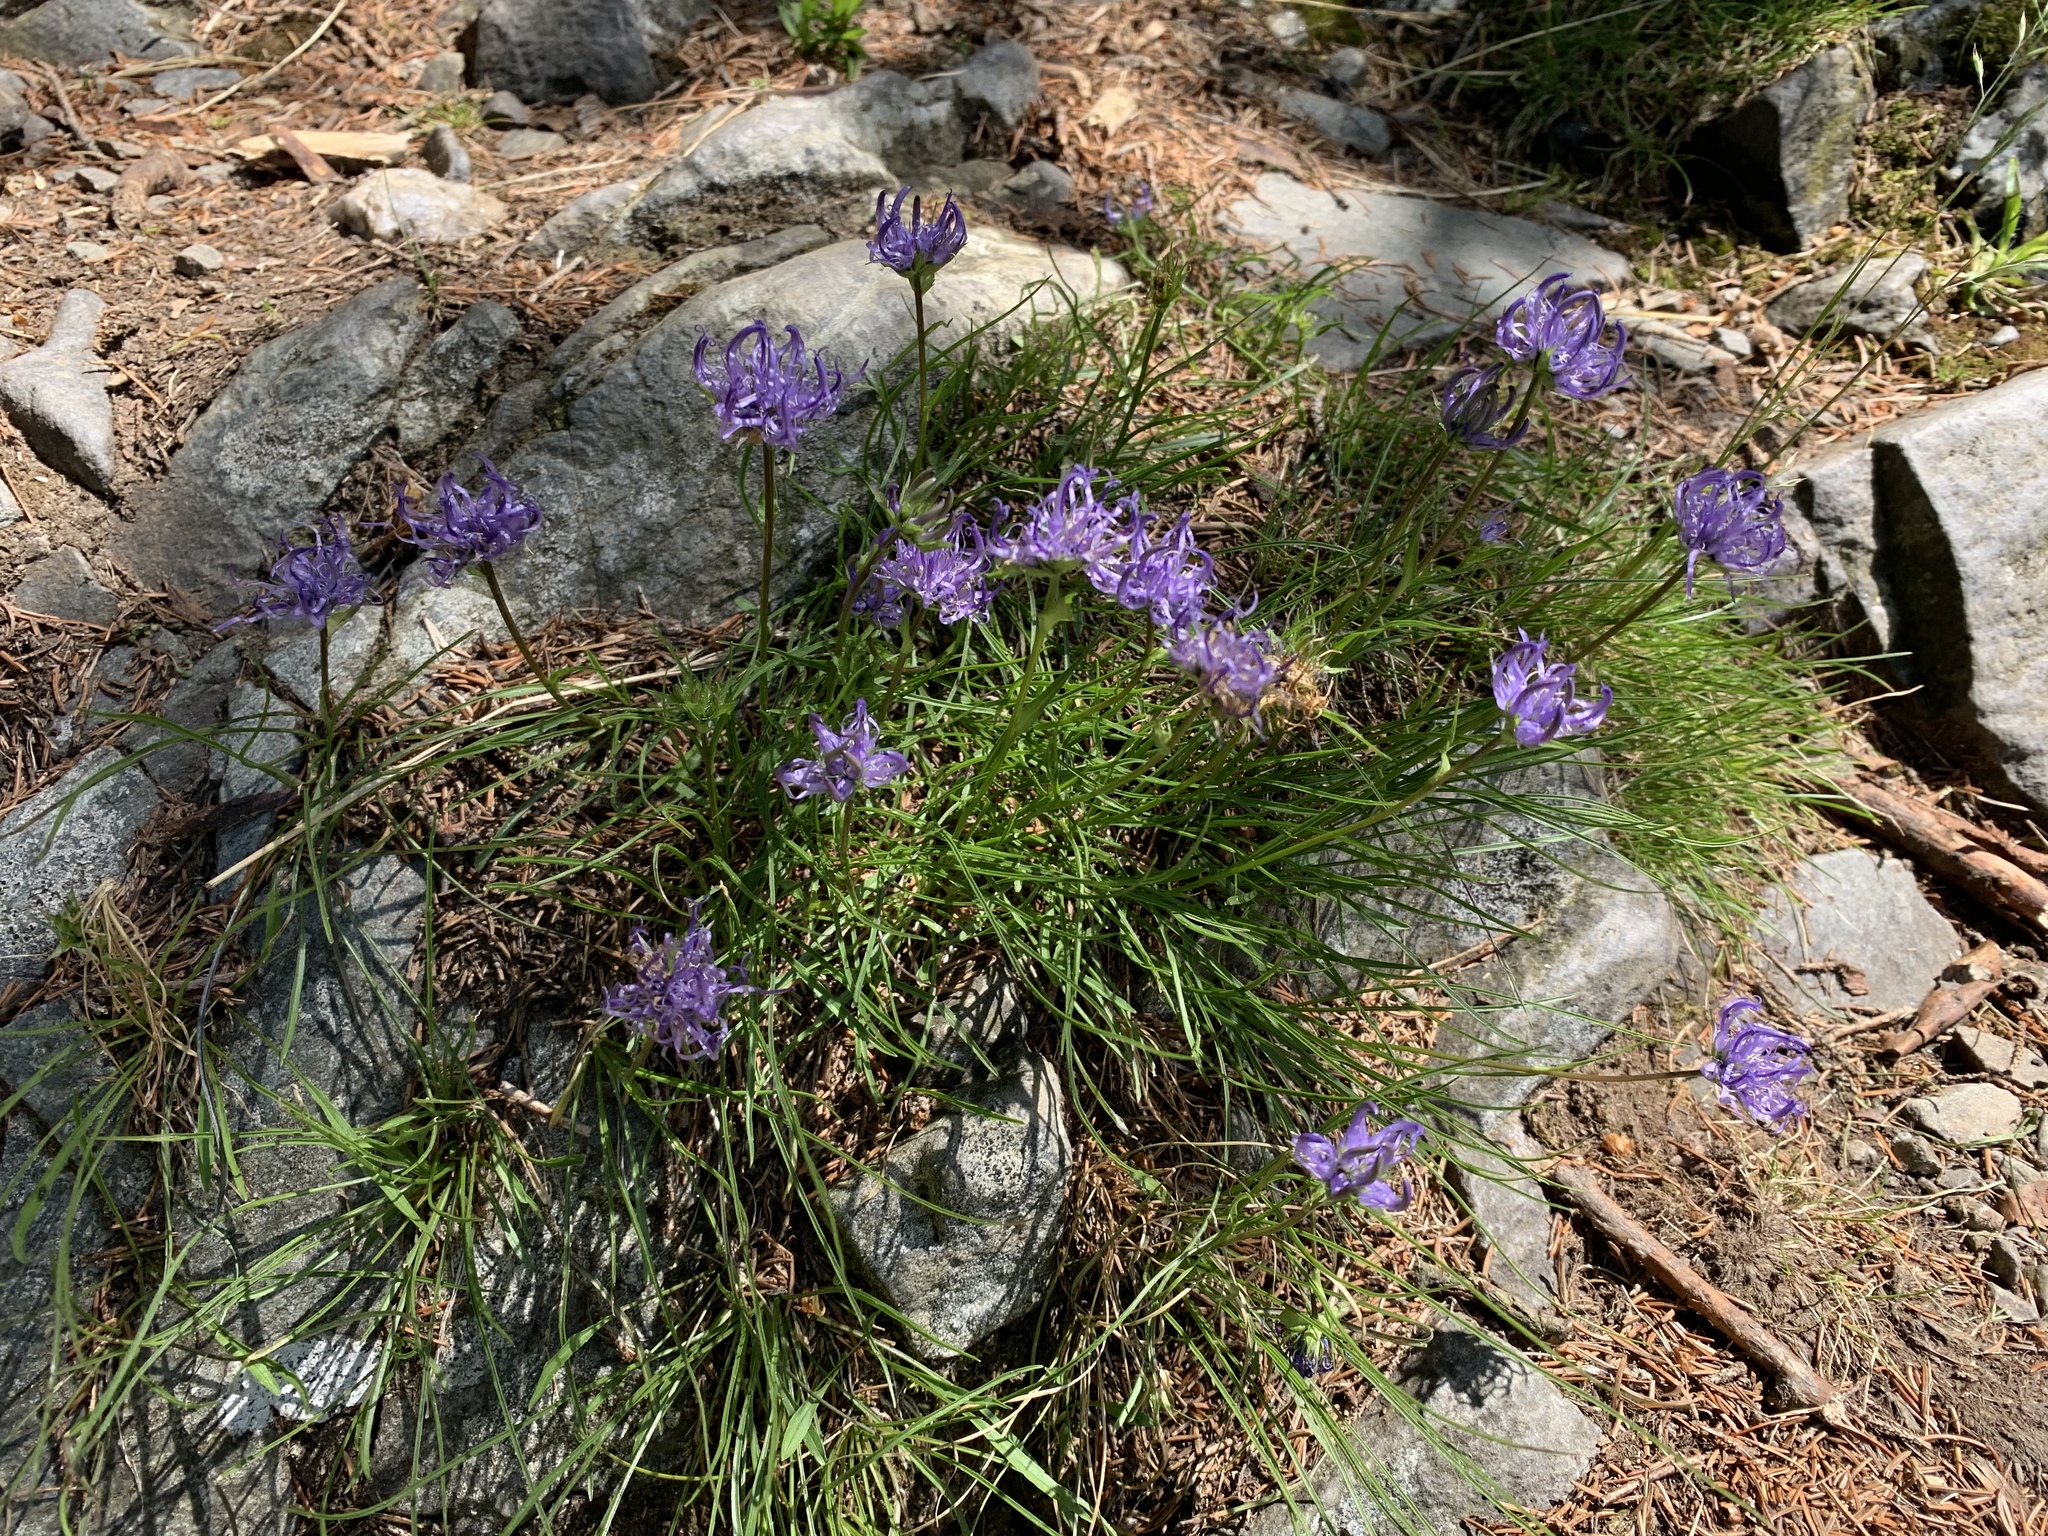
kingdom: Plantae
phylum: Tracheophyta
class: Magnoliopsida
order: Asterales
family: Campanulaceae
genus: Phyteuma
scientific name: Phyteuma hemisphaericum
